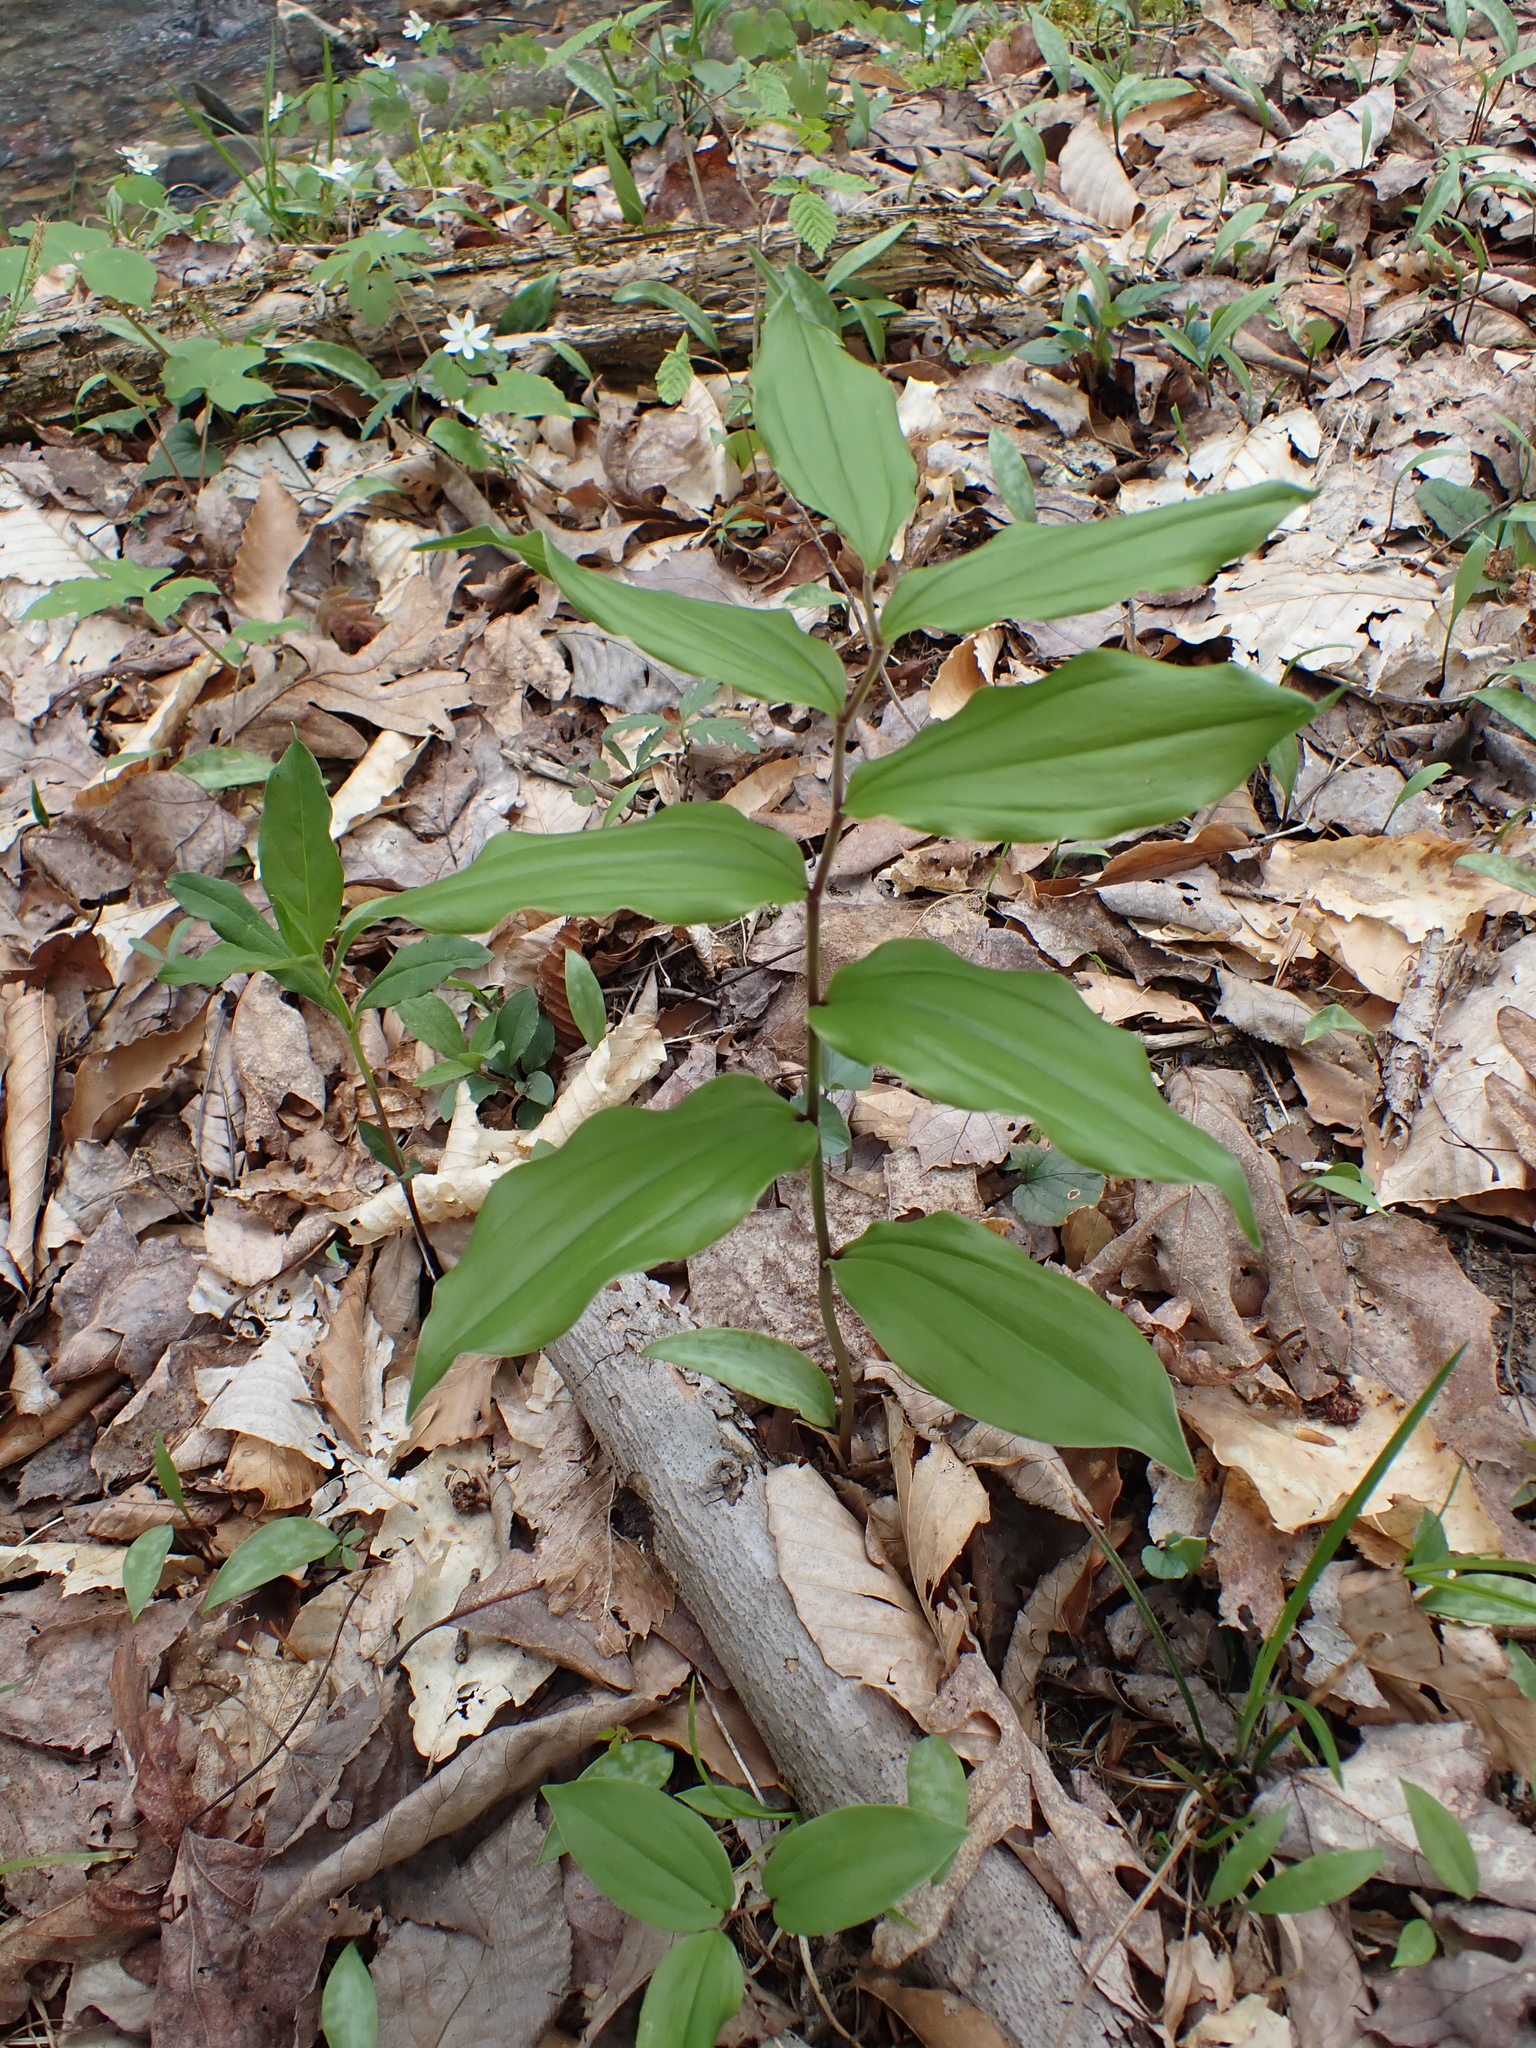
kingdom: Plantae
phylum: Tracheophyta
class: Liliopsida
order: Asparagales
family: Asparagaceae
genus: Maianthemum
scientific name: Maianthemum racemosum
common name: False spikenard
